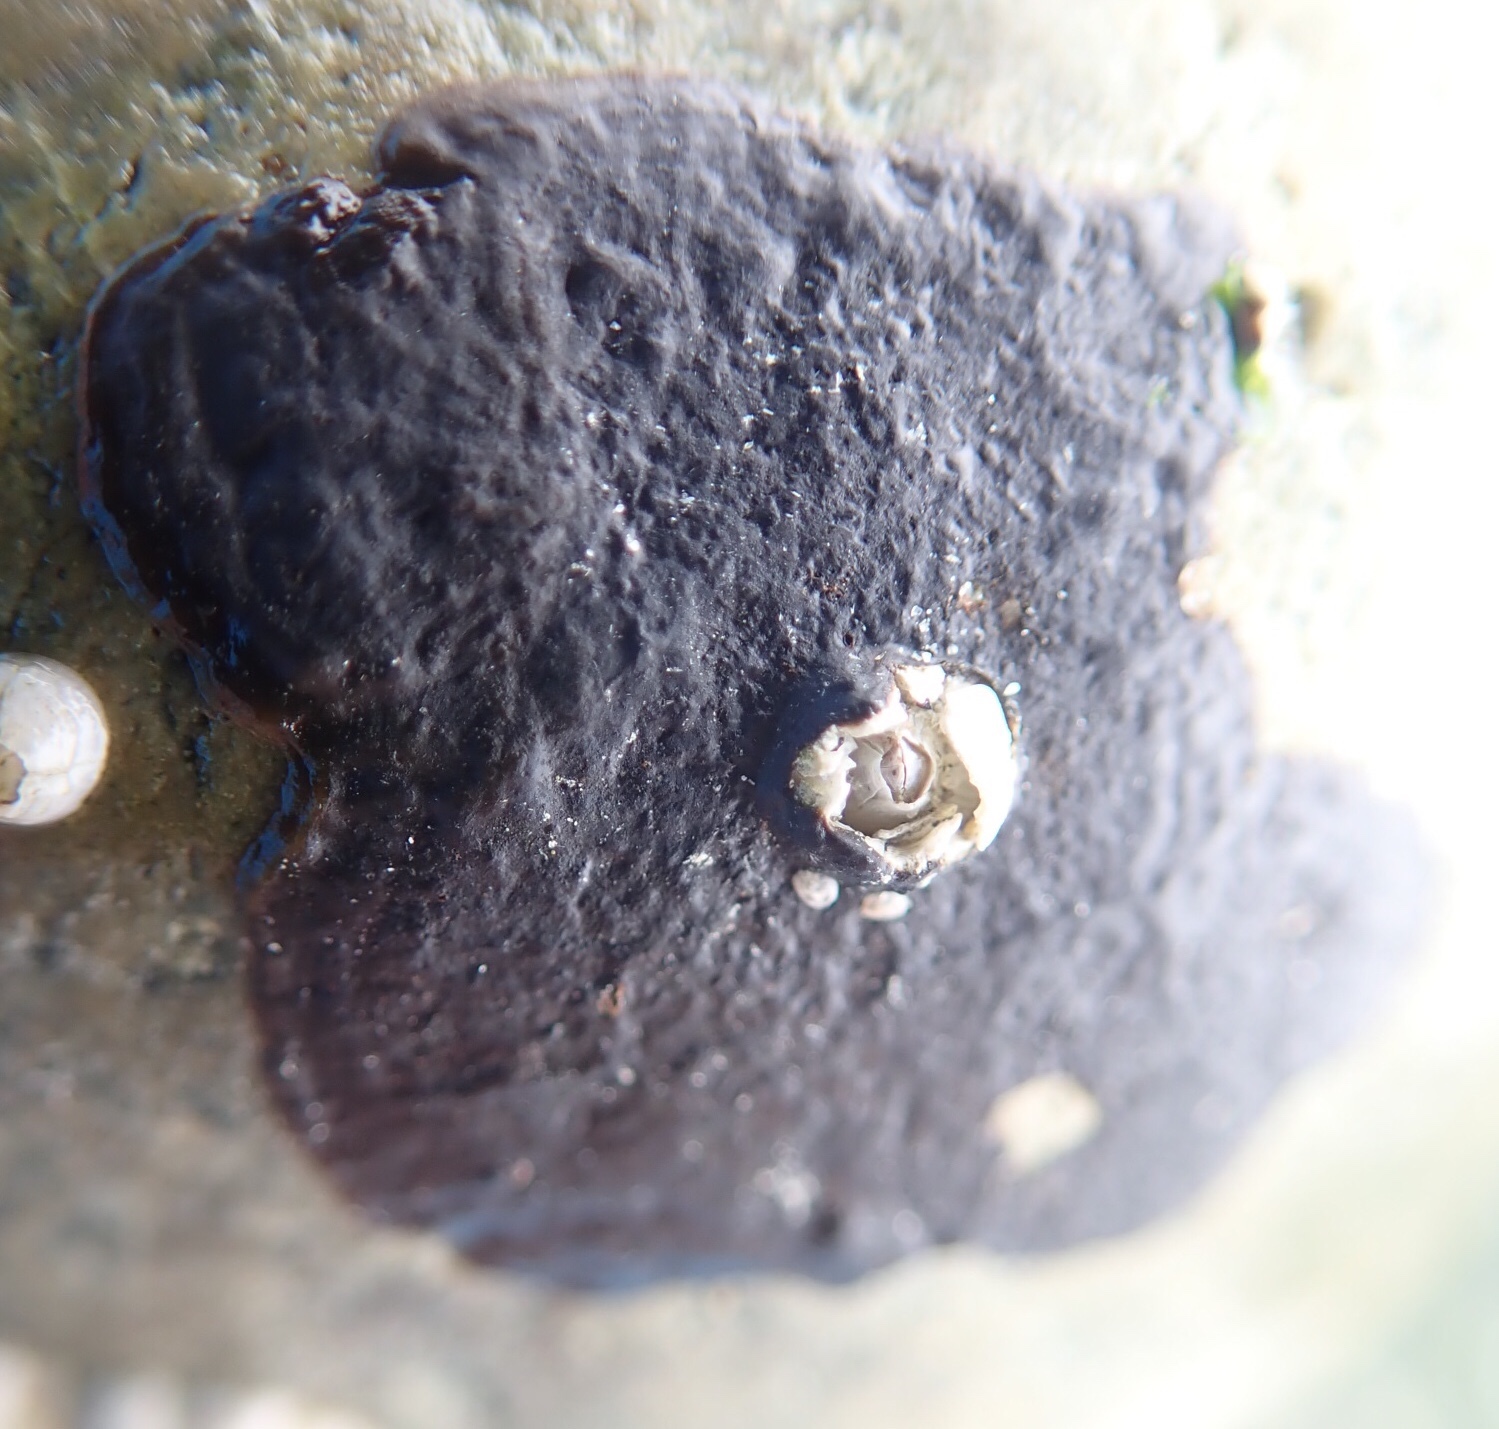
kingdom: Plantae
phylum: Rhodophyta
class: Florideophyceae
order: Gigartinales
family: Phyllophoraceae
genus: Mastocarpus
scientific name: Mastocarpus papillatus
